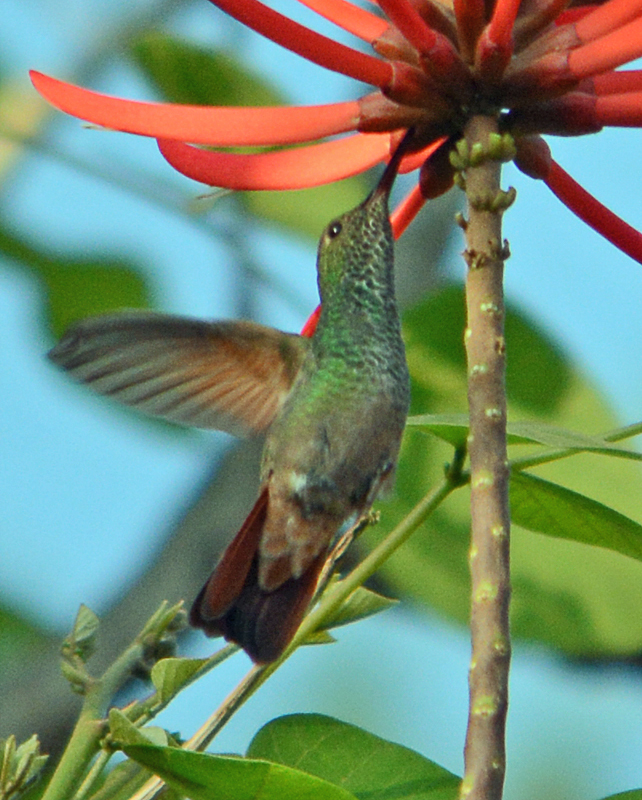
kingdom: Animalia
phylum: Chordata
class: Aves
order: Apodiformes
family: Trochilidae
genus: Saucerottia
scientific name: Saucerottia beryllina
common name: Berylline hummingbird
